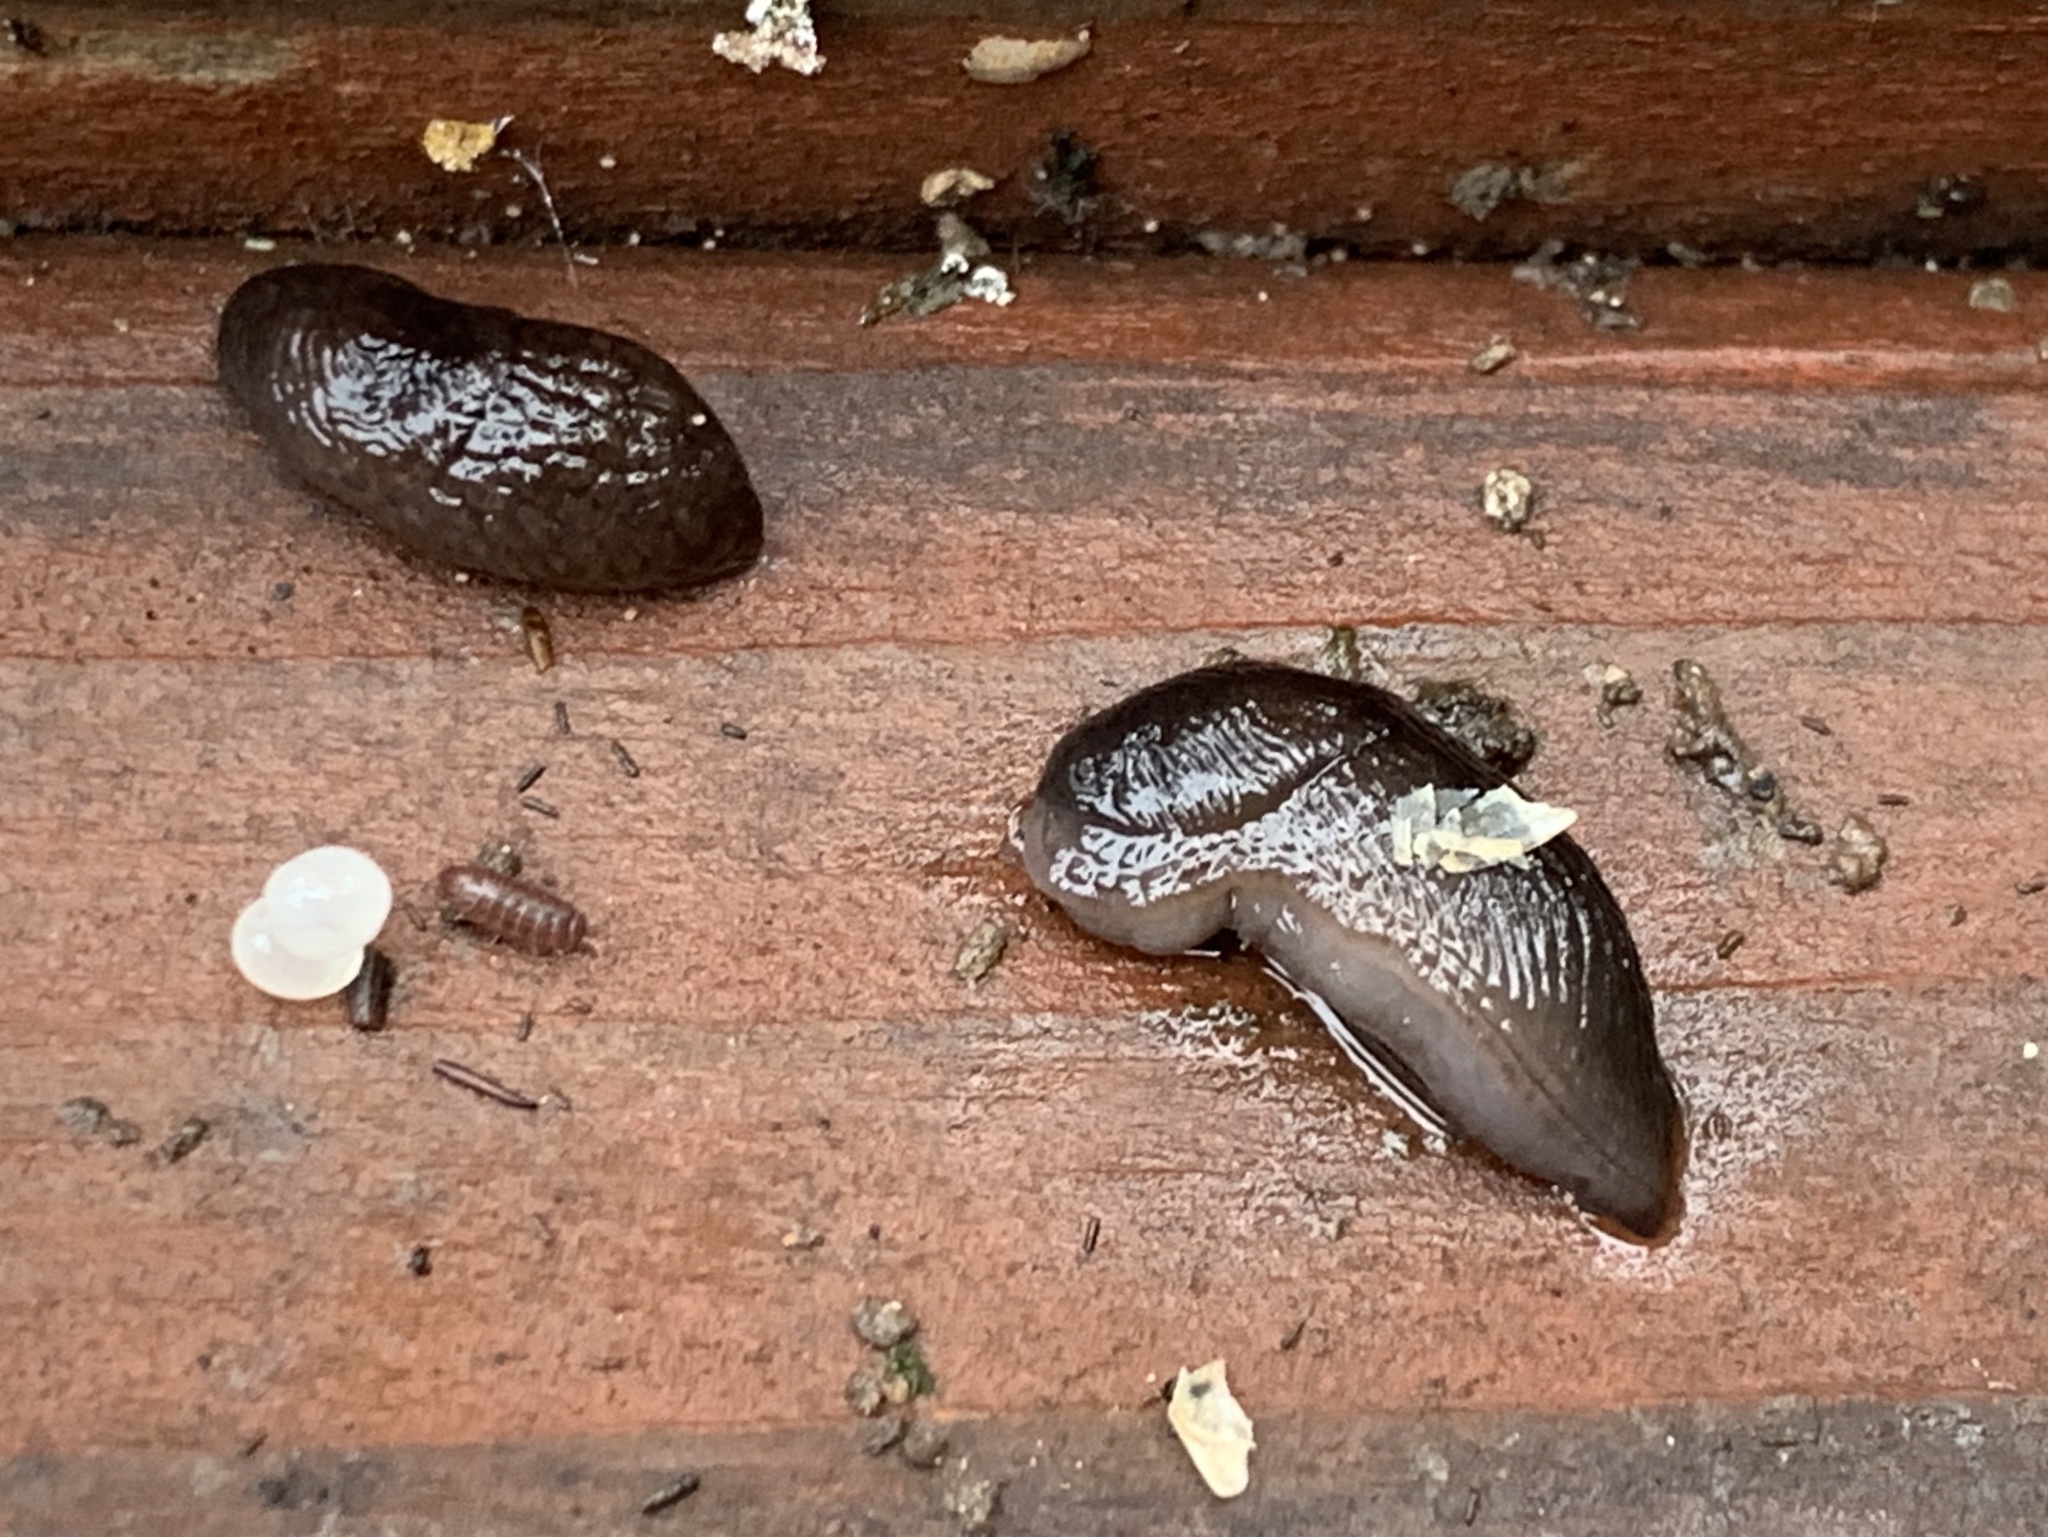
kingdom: Animalia
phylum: Mollusca
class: Gastropoda
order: Stylommatophora
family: Agriolimacidae
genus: Deroceras
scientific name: Deroceras laeve
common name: Marsh slug
